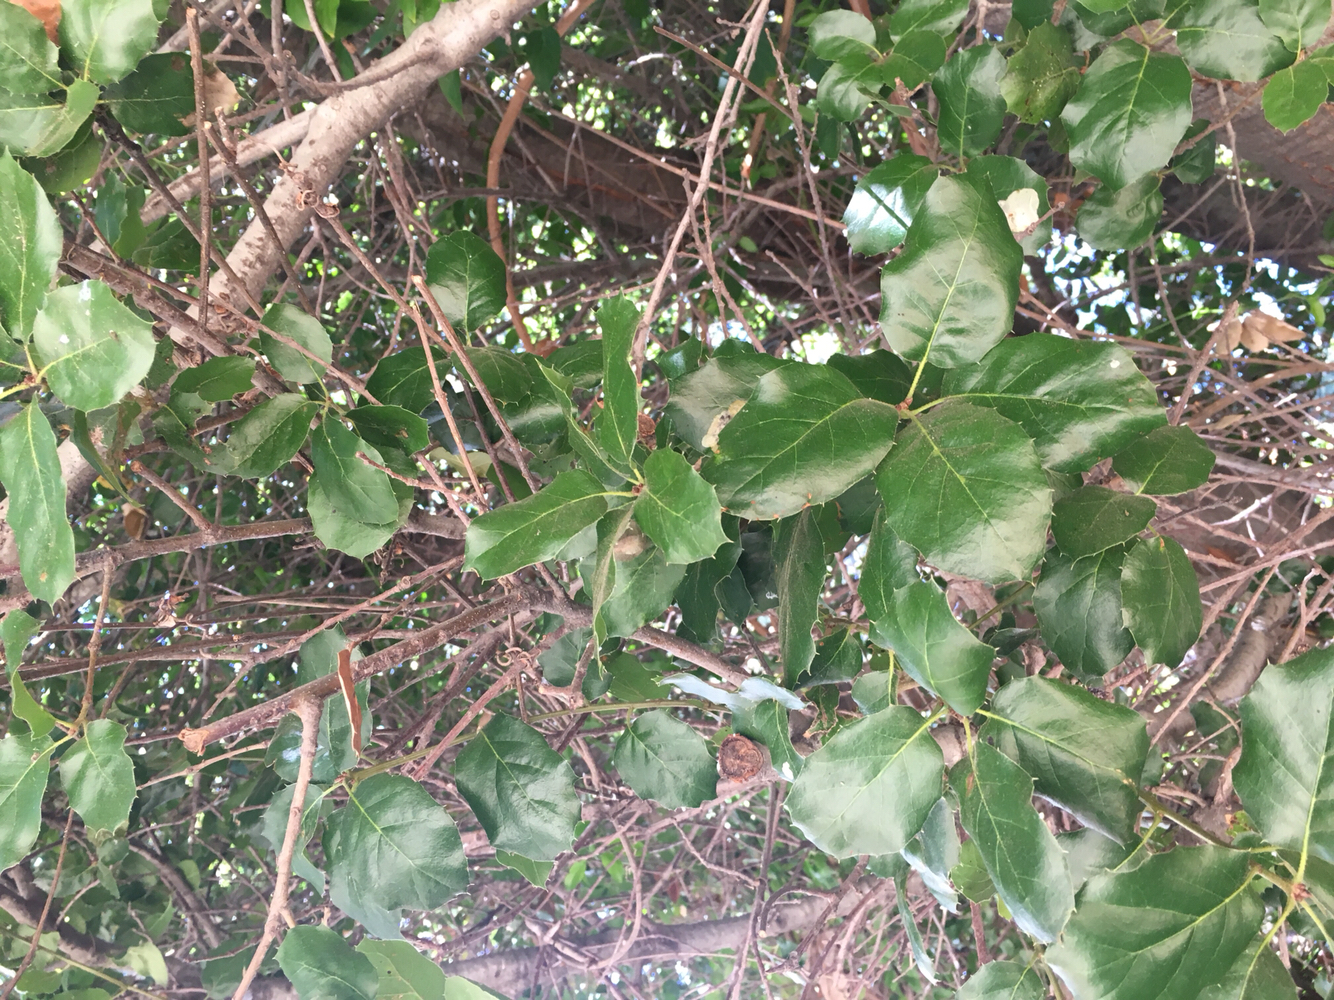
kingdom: Plantae
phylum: Tracheophyta
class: Magnoliopsida
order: Fagales
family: Fagaceae
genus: Quercus
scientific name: Quercus agrifolia
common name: California live oak
